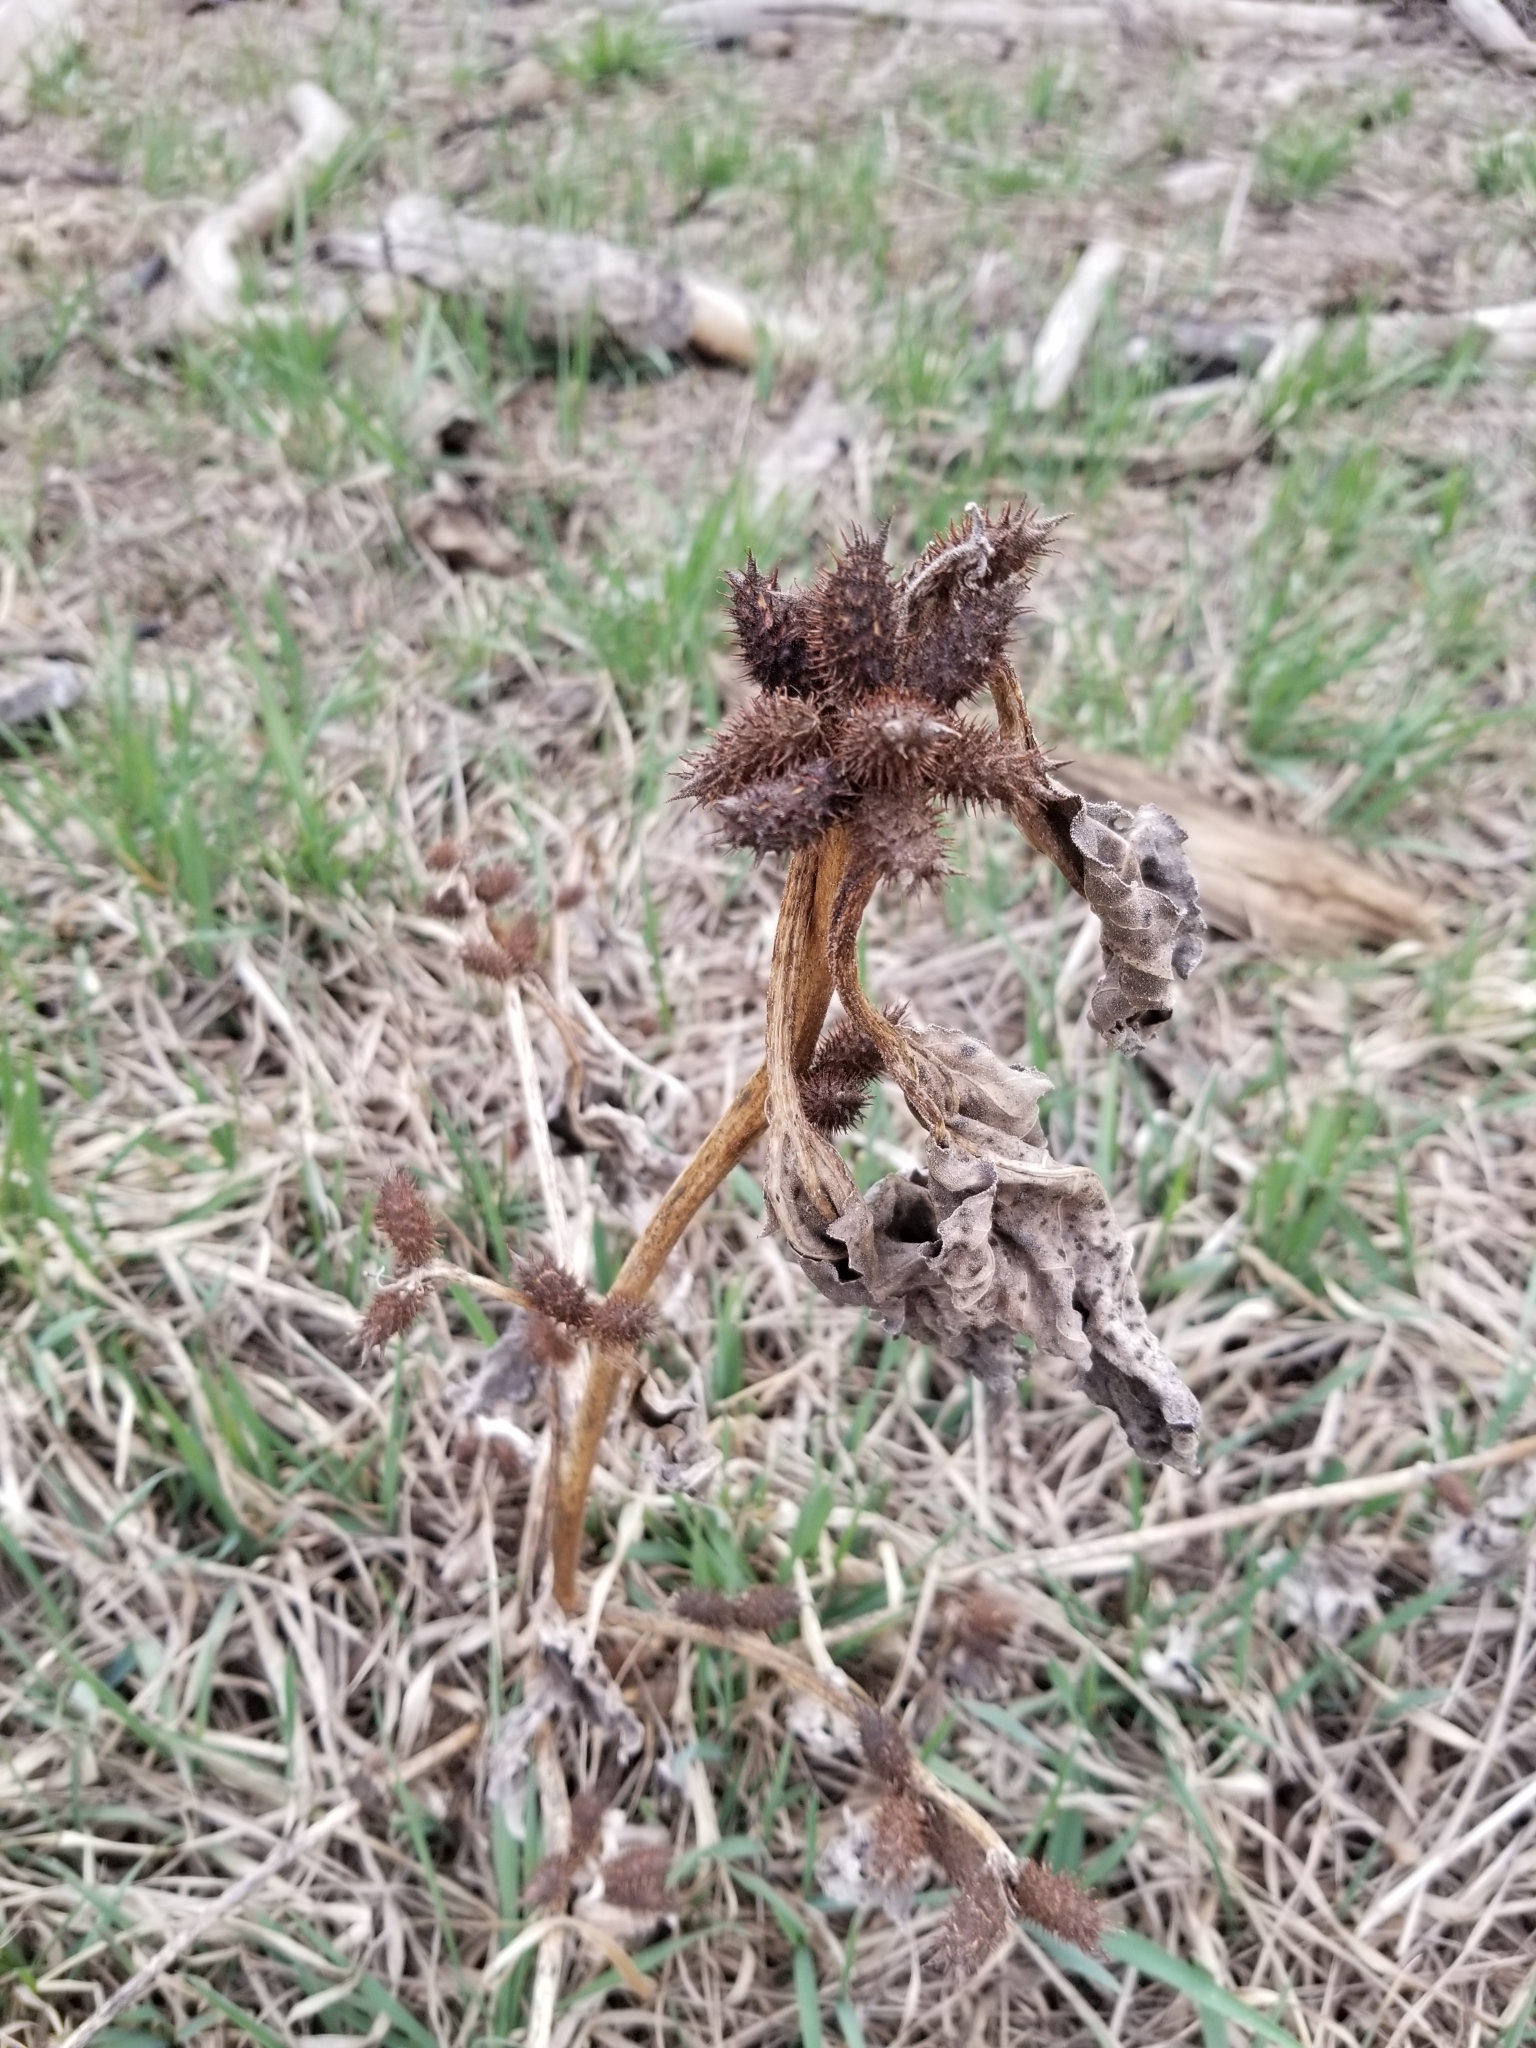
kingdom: Plantae
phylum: Tracheophyta
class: Magnoliopsida
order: Asterales
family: Asteraceae
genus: Xanthium
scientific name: Xanthium strumarium
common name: Rough cocklebur
